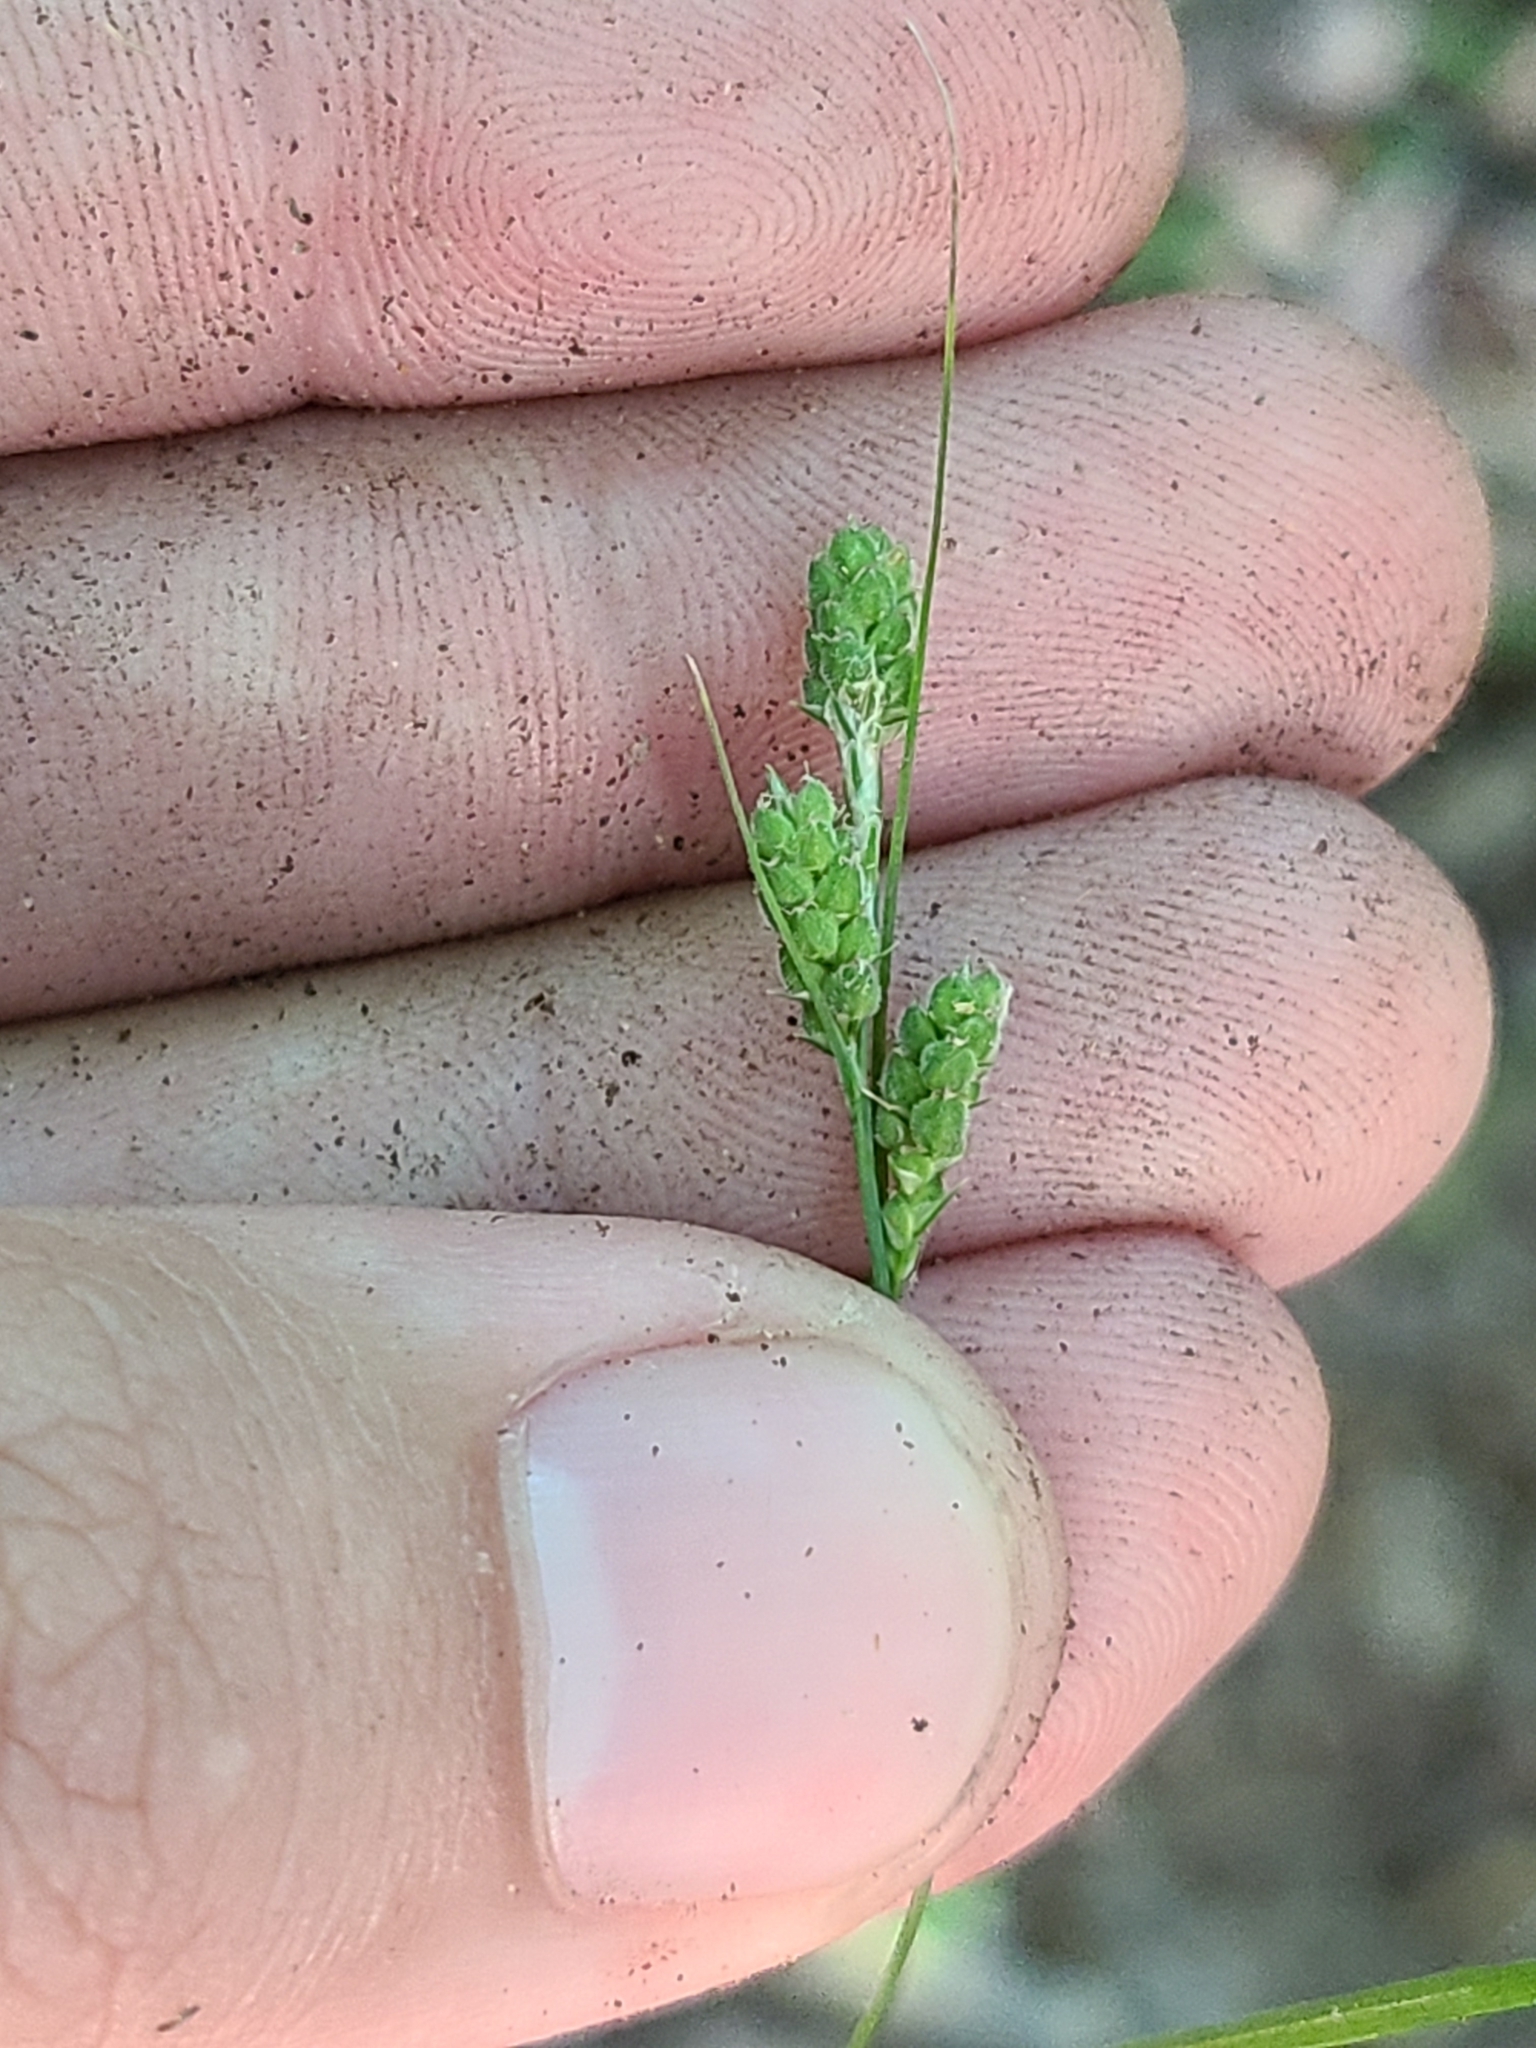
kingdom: Plantae
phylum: Tracheophyta
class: Liliopsida
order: Poales
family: Cyperaceae
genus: Carex
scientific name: Carex swanii
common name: Downy green sedge
